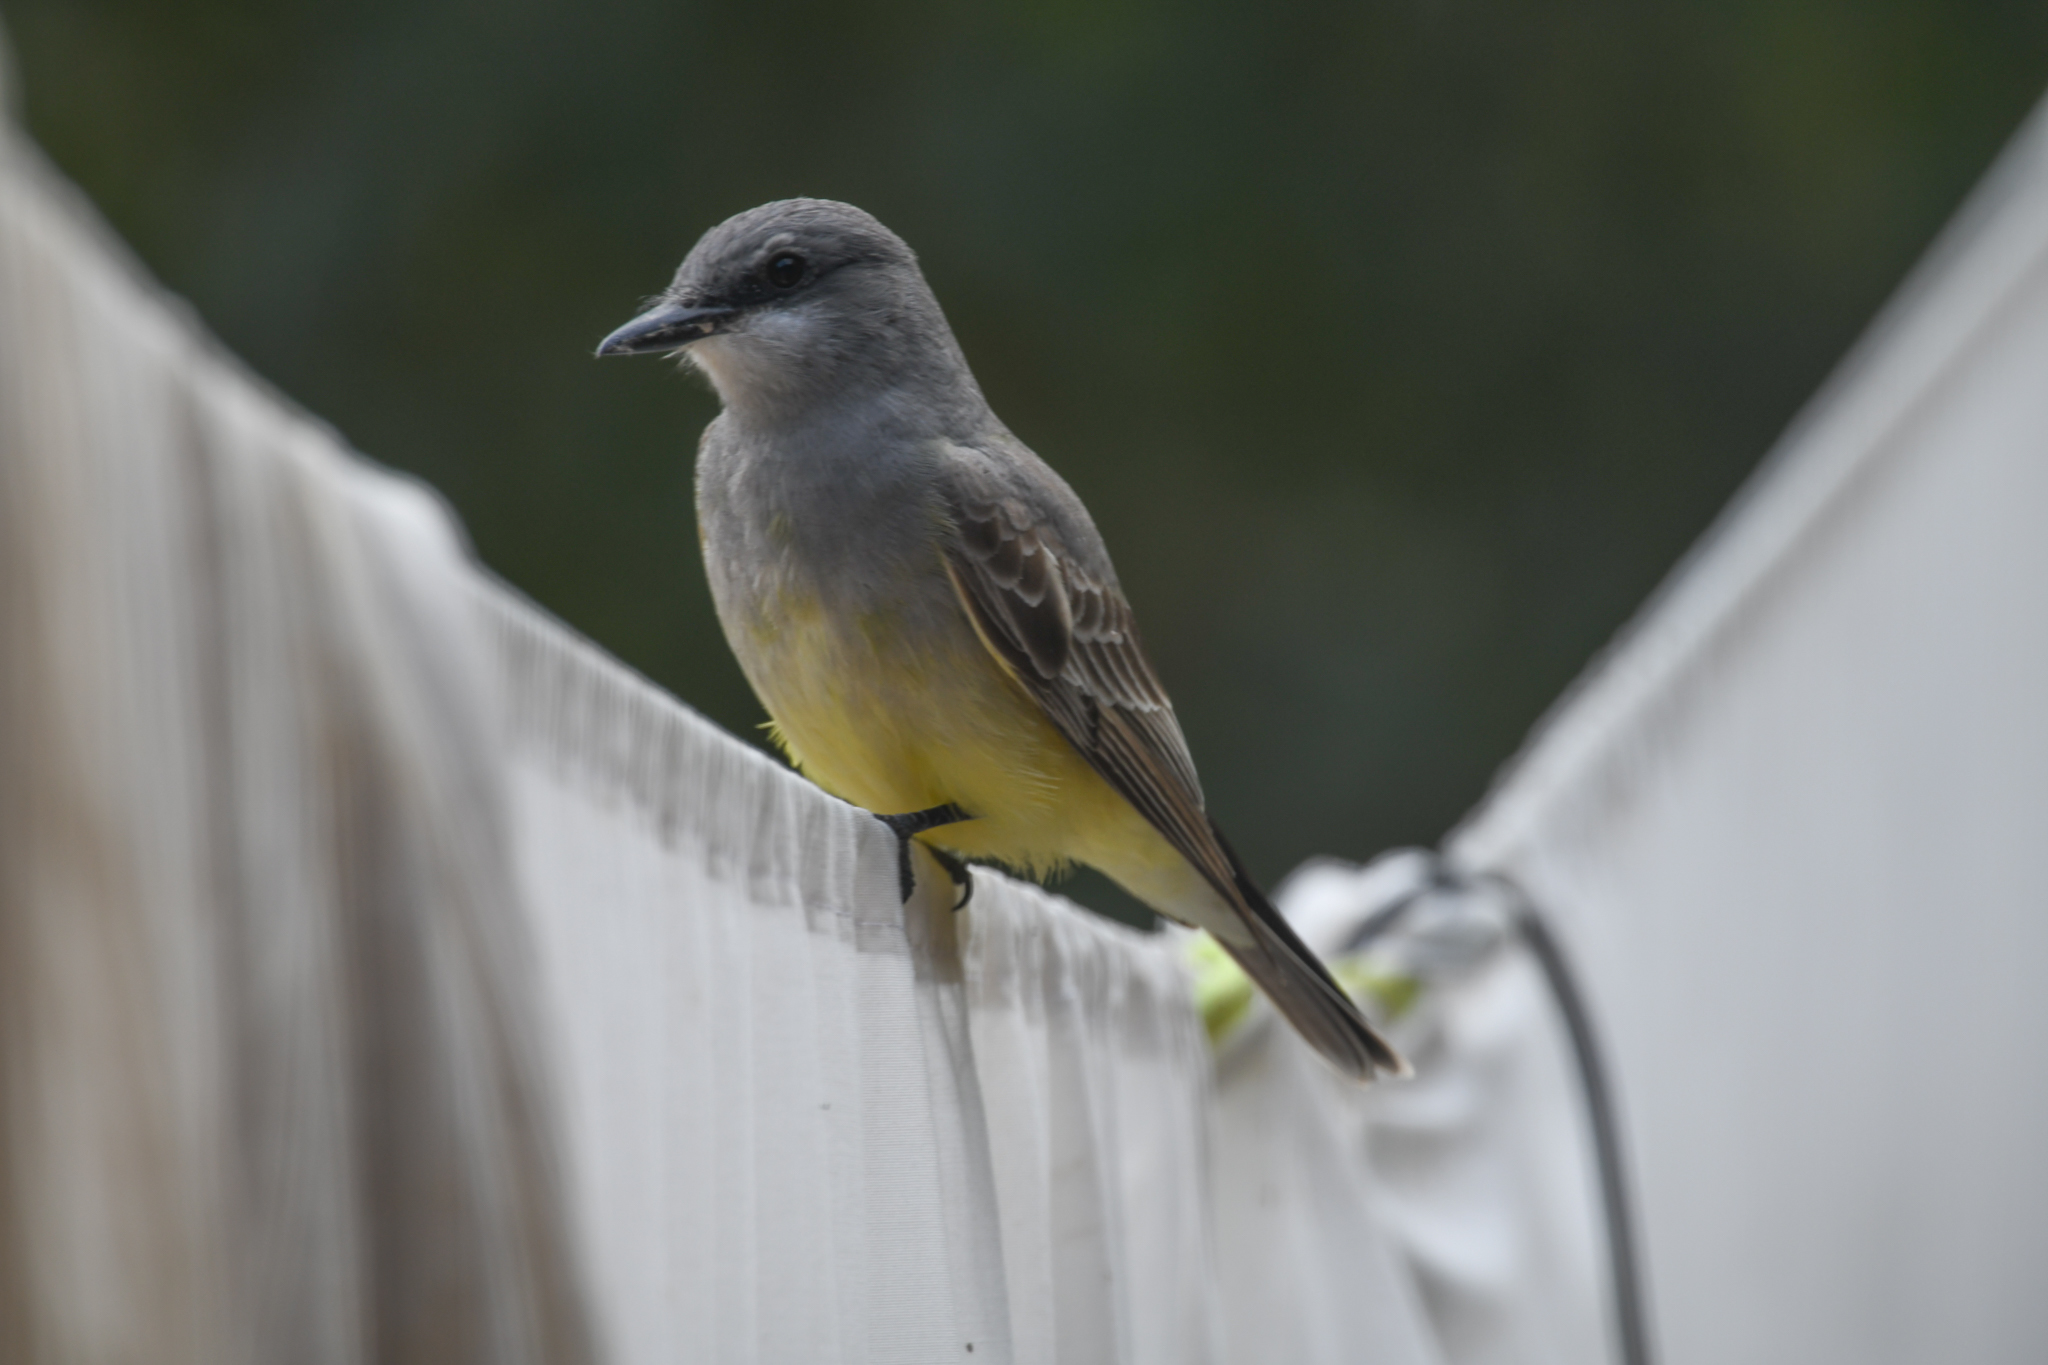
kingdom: Animalia
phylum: Chordata
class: Aves
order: Passeriformes
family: Tyrannidae
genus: Tyrannus
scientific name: Tyrannus vociferans
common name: Cassin's kingbird
